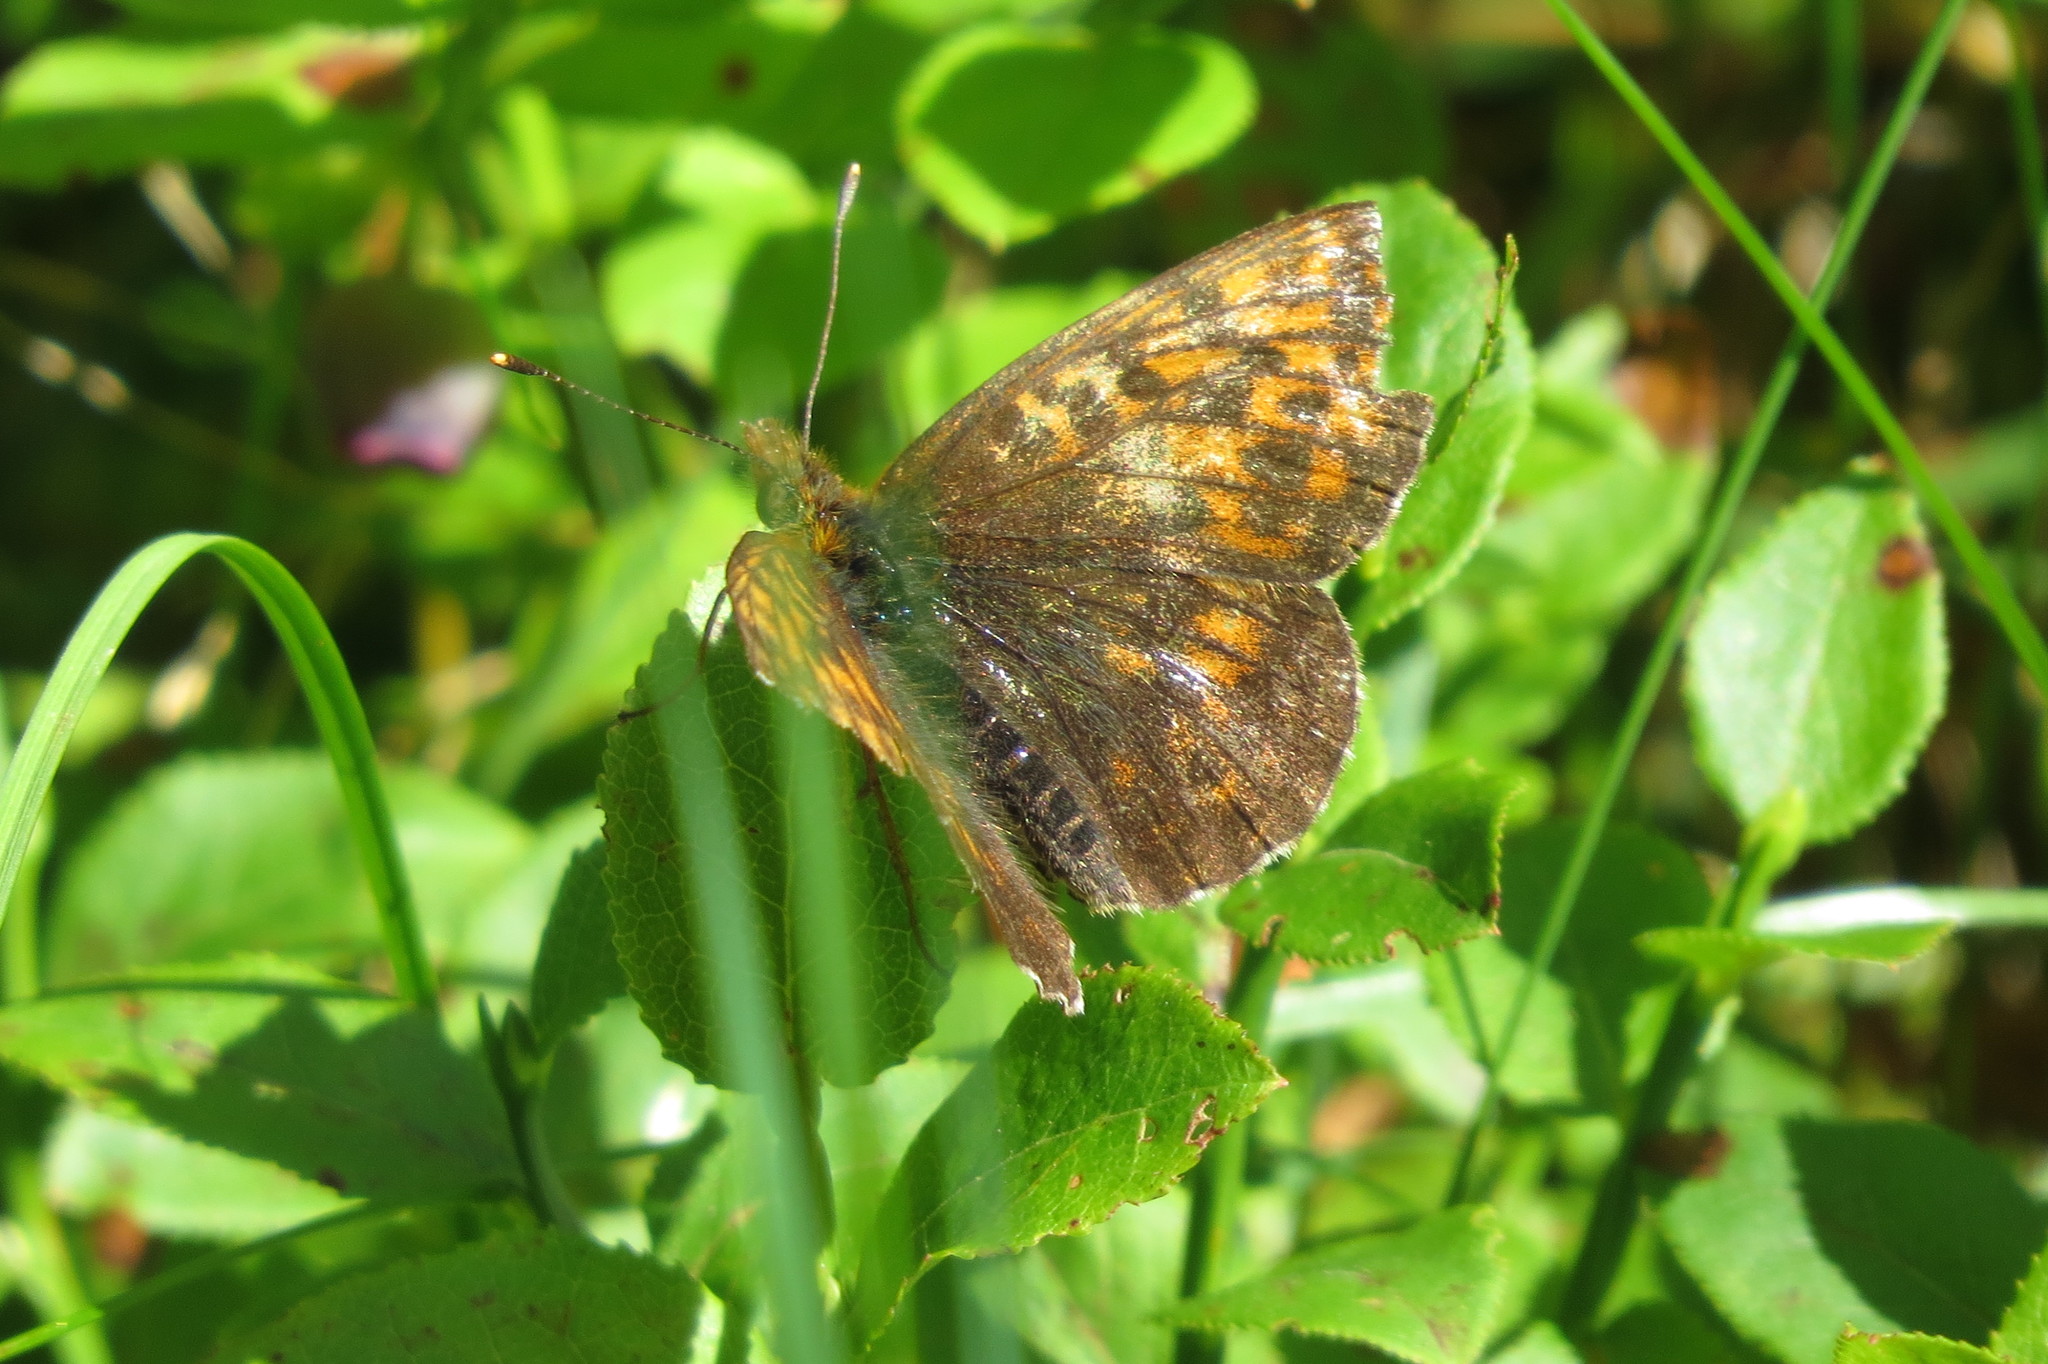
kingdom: Animalia
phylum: Arthropoda
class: Insecta
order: Lepidoptera
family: Nymphalidae
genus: Boloria
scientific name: Boloria thore
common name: Thor's fritillary
